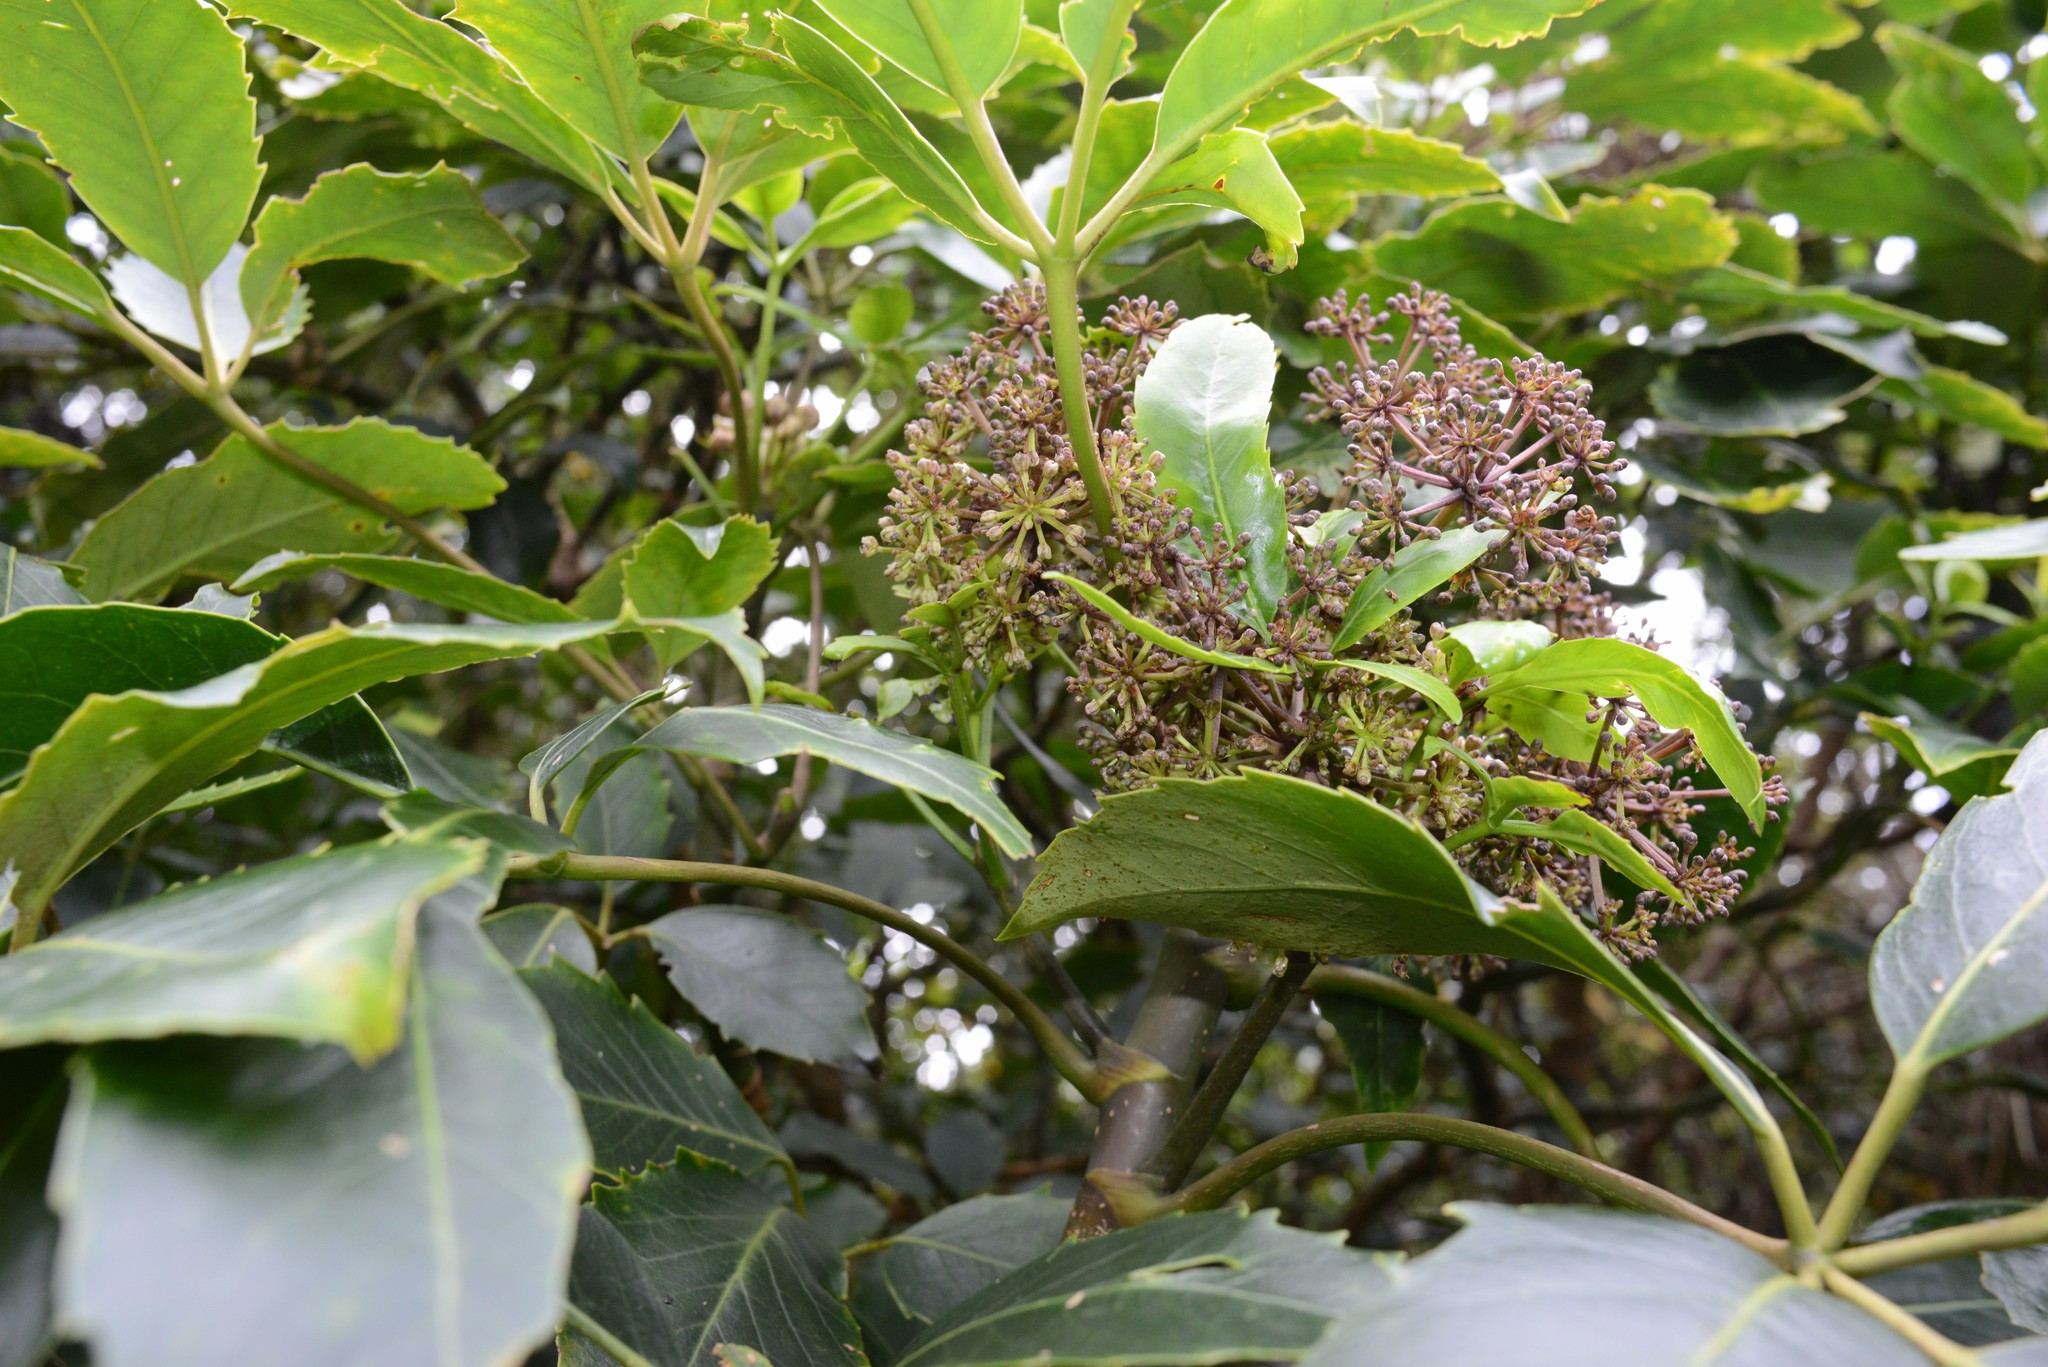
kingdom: Plantae
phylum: Tracheophyta
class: Magnoliopsida
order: Apiales
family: Araliaceae
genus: Neopanax
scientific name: Neopanax arboreus
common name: Five-fingers
